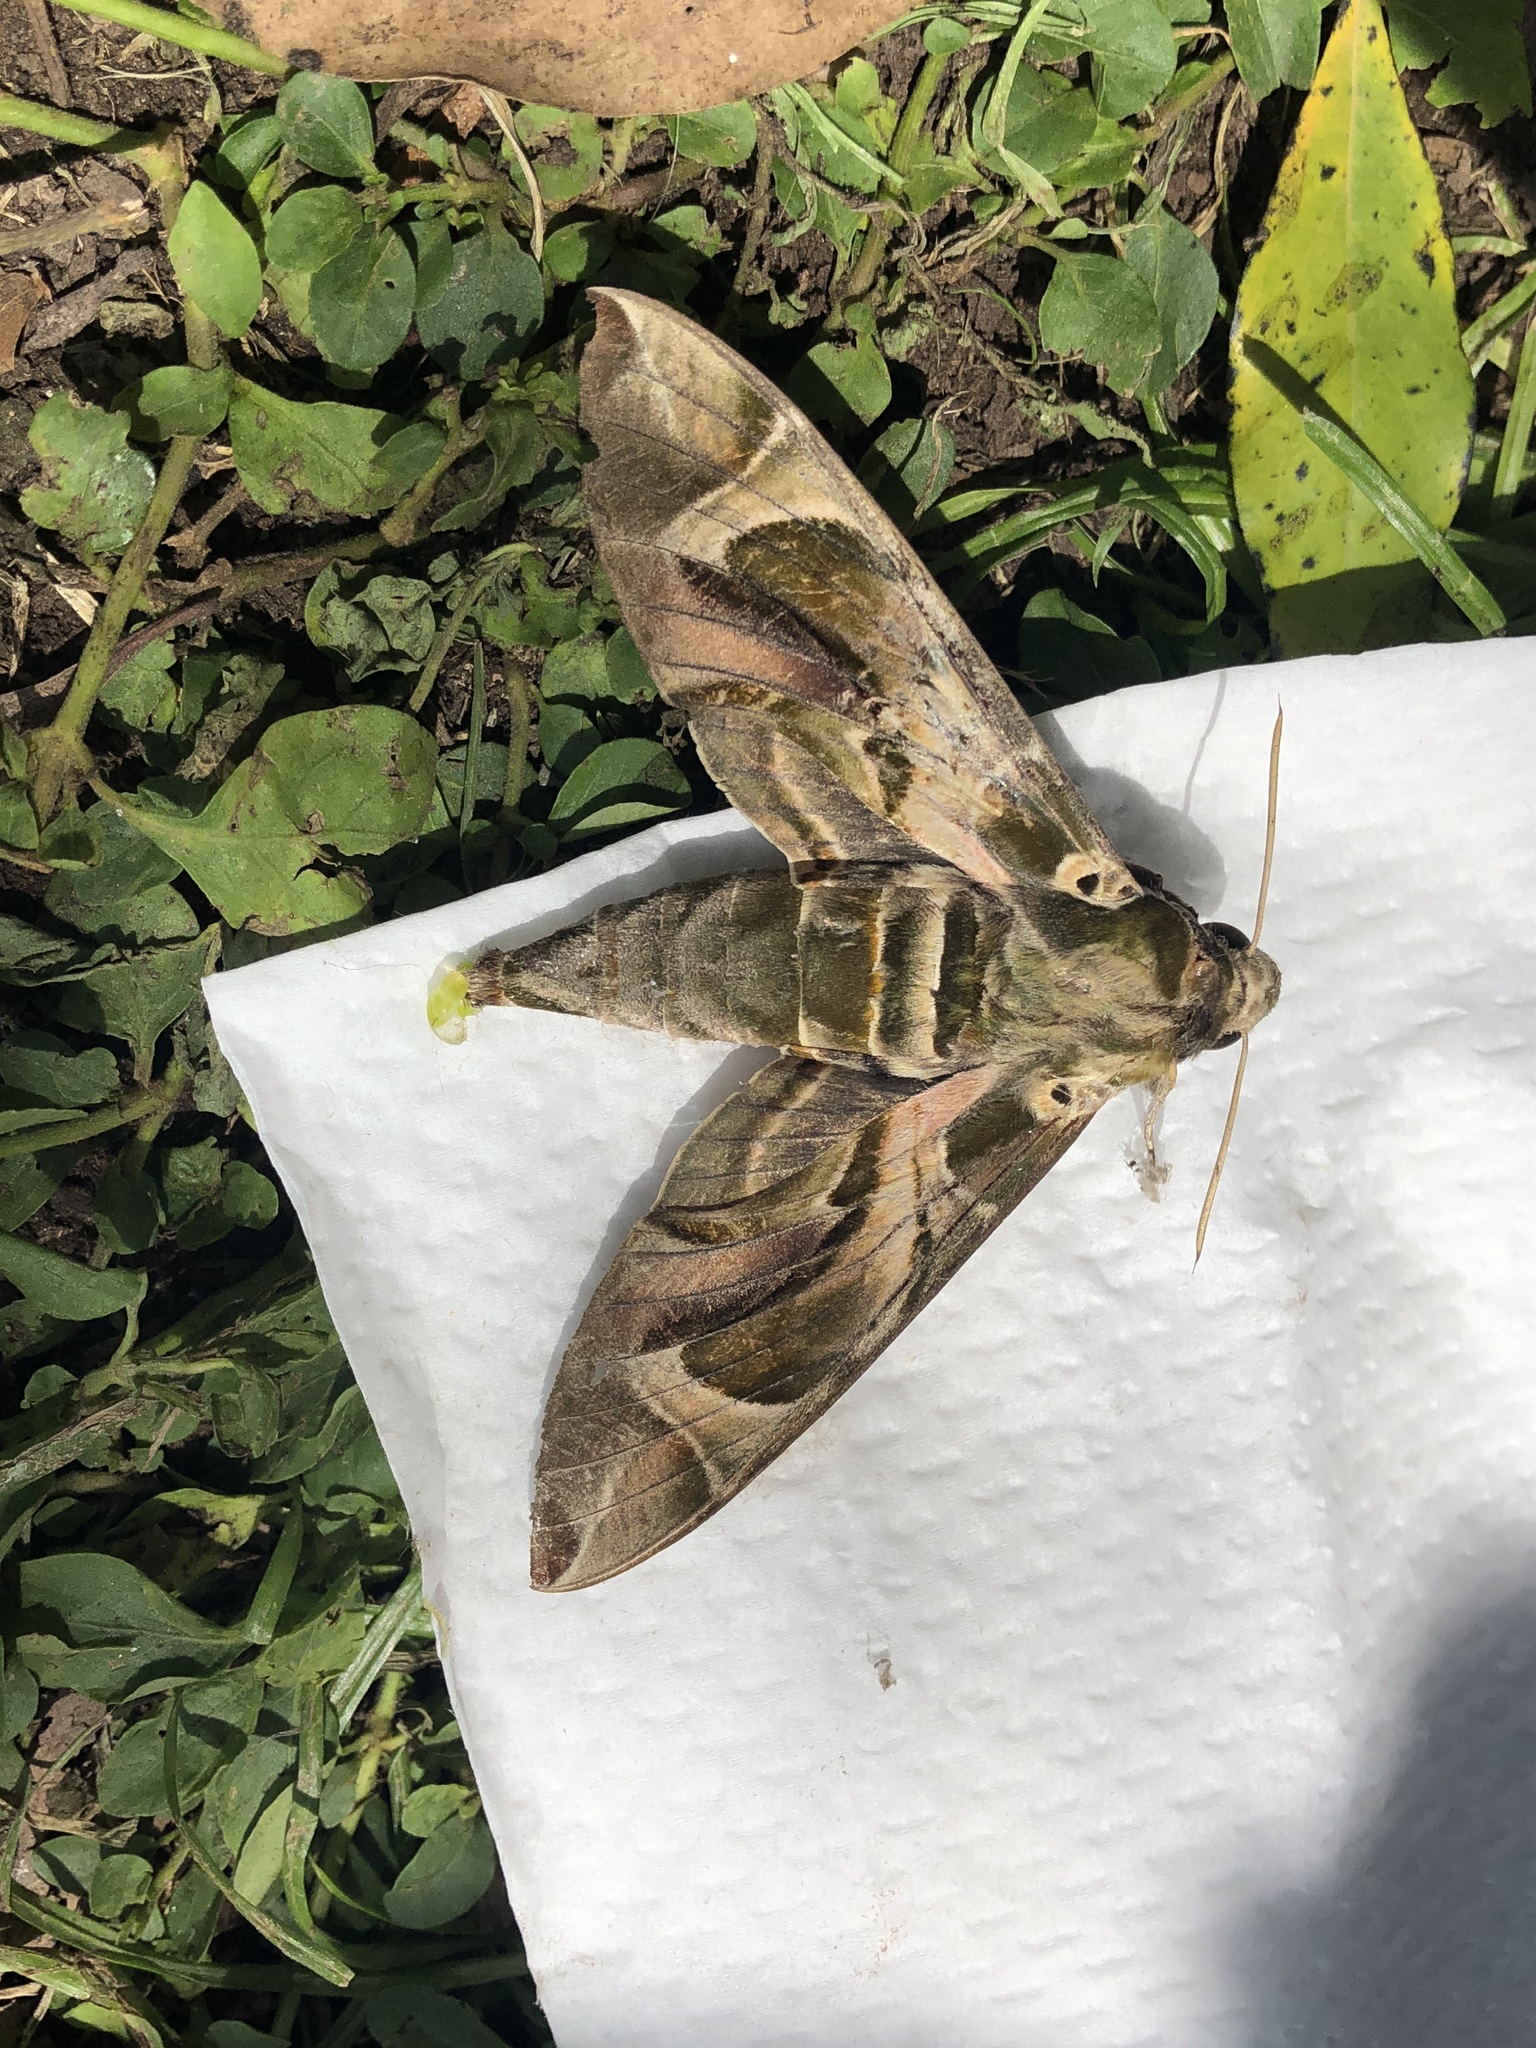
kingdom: Animalia
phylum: Arthropoda
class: Insecta
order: Lepidoptera
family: Sphingidae
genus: Daphnis
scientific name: Daphnis nerii
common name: Oleander hawk-moth
